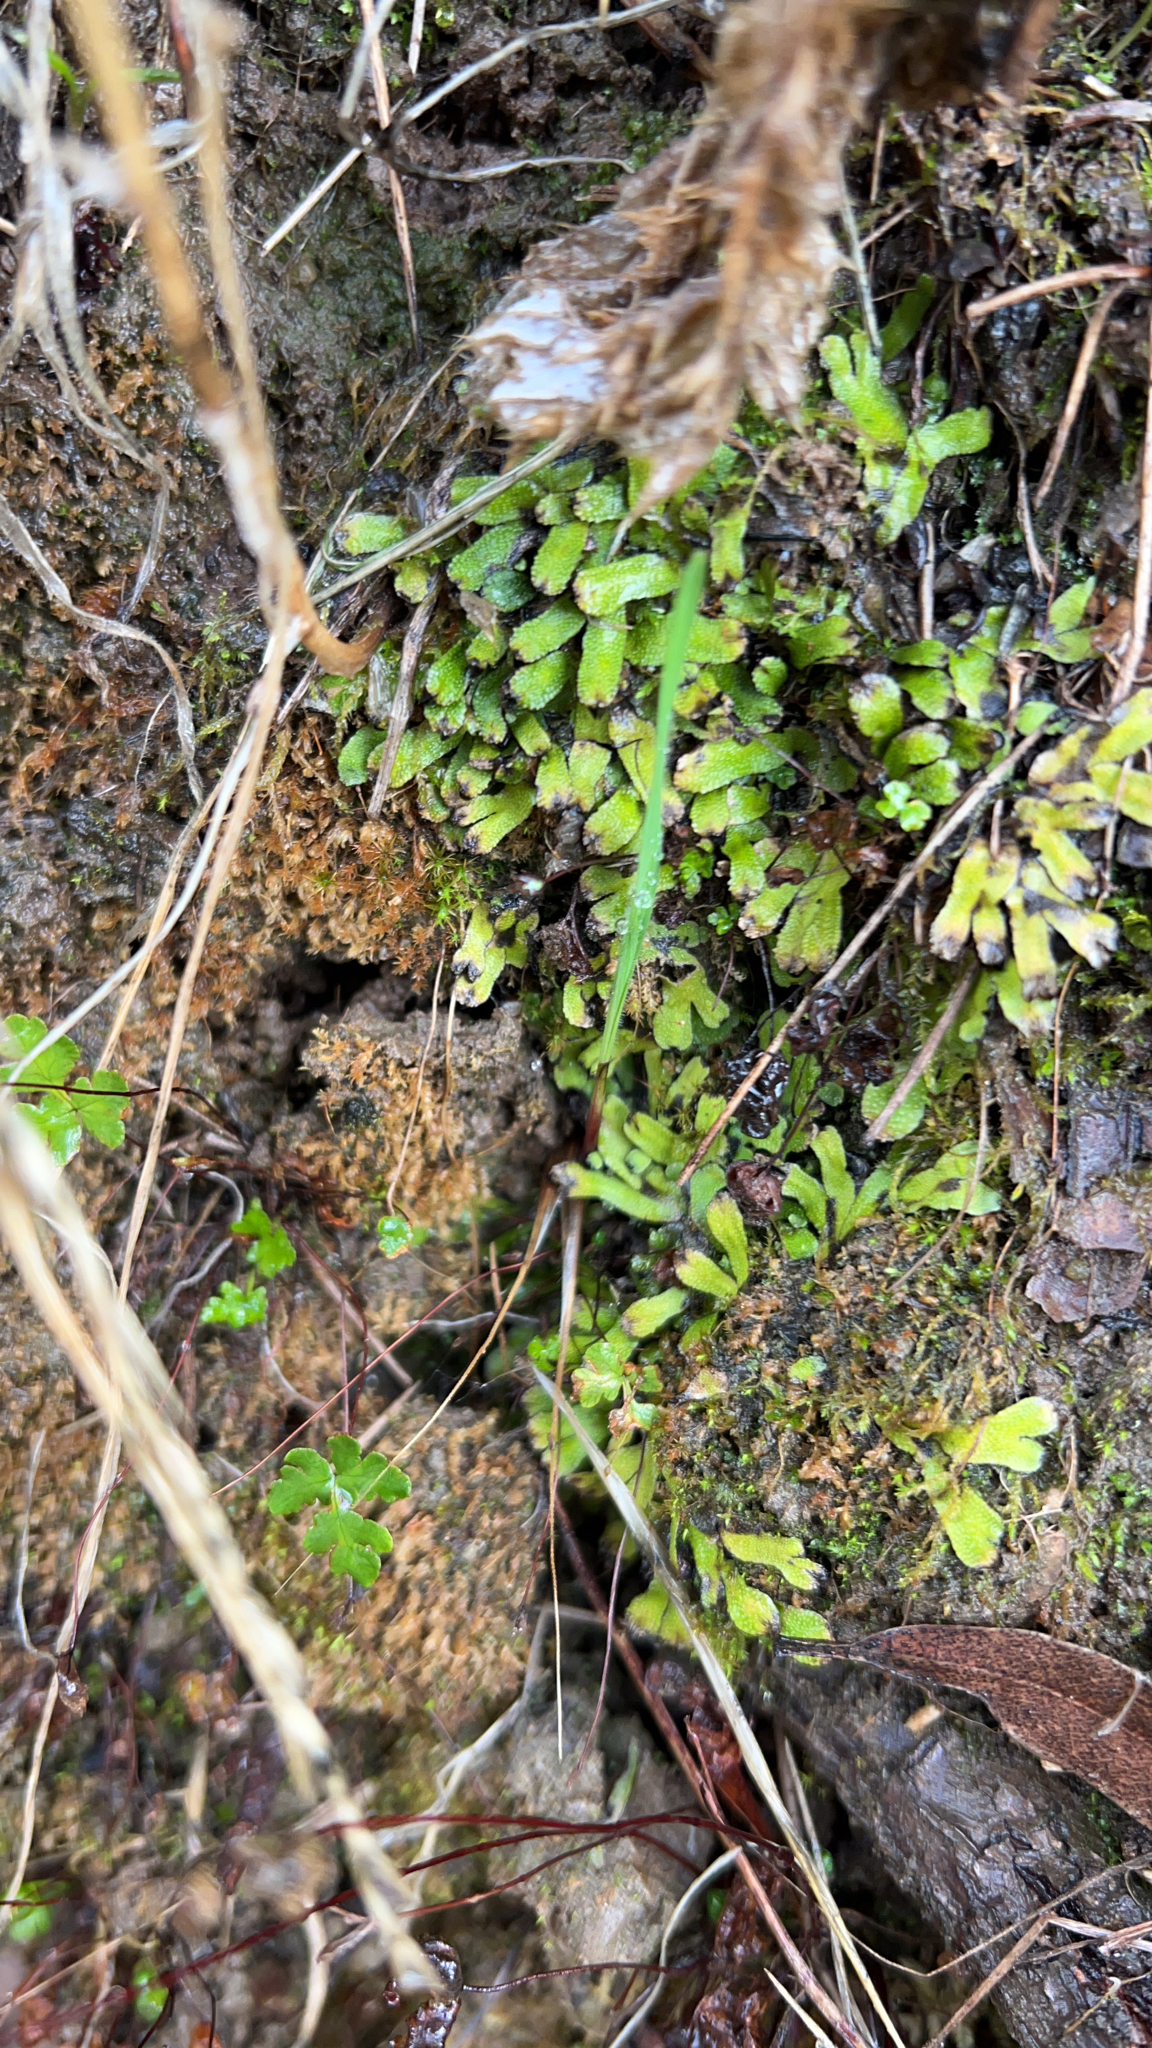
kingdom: Plantae
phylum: Marchantiophyta
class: Marchantiopsida
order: Marchantiales
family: Targioniaceae
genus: Targionia
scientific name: Targionia hypophylla
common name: Orobus-seed liverwort
